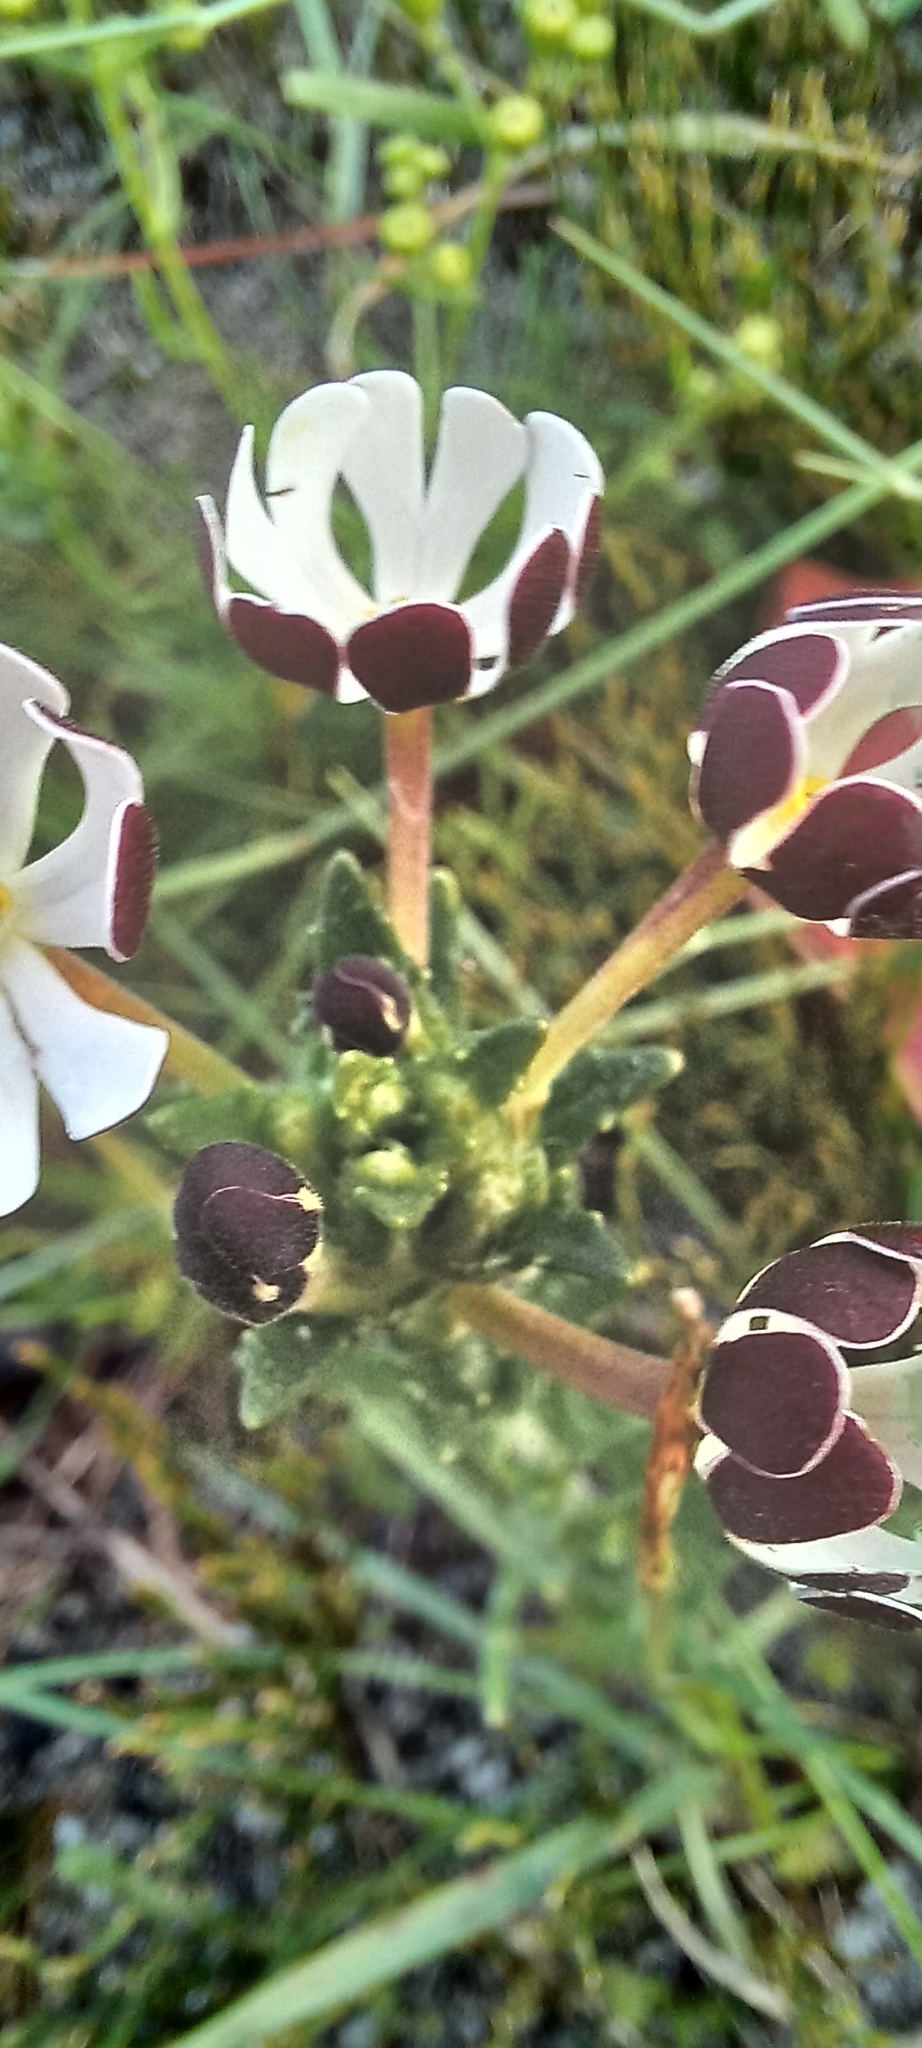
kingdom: Plantae
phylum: Tracheophyta
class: Magnoliopsida
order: Lamiales
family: Scrophulariaceae
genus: Zaluzianskya
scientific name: Zaluzianskya capensis
